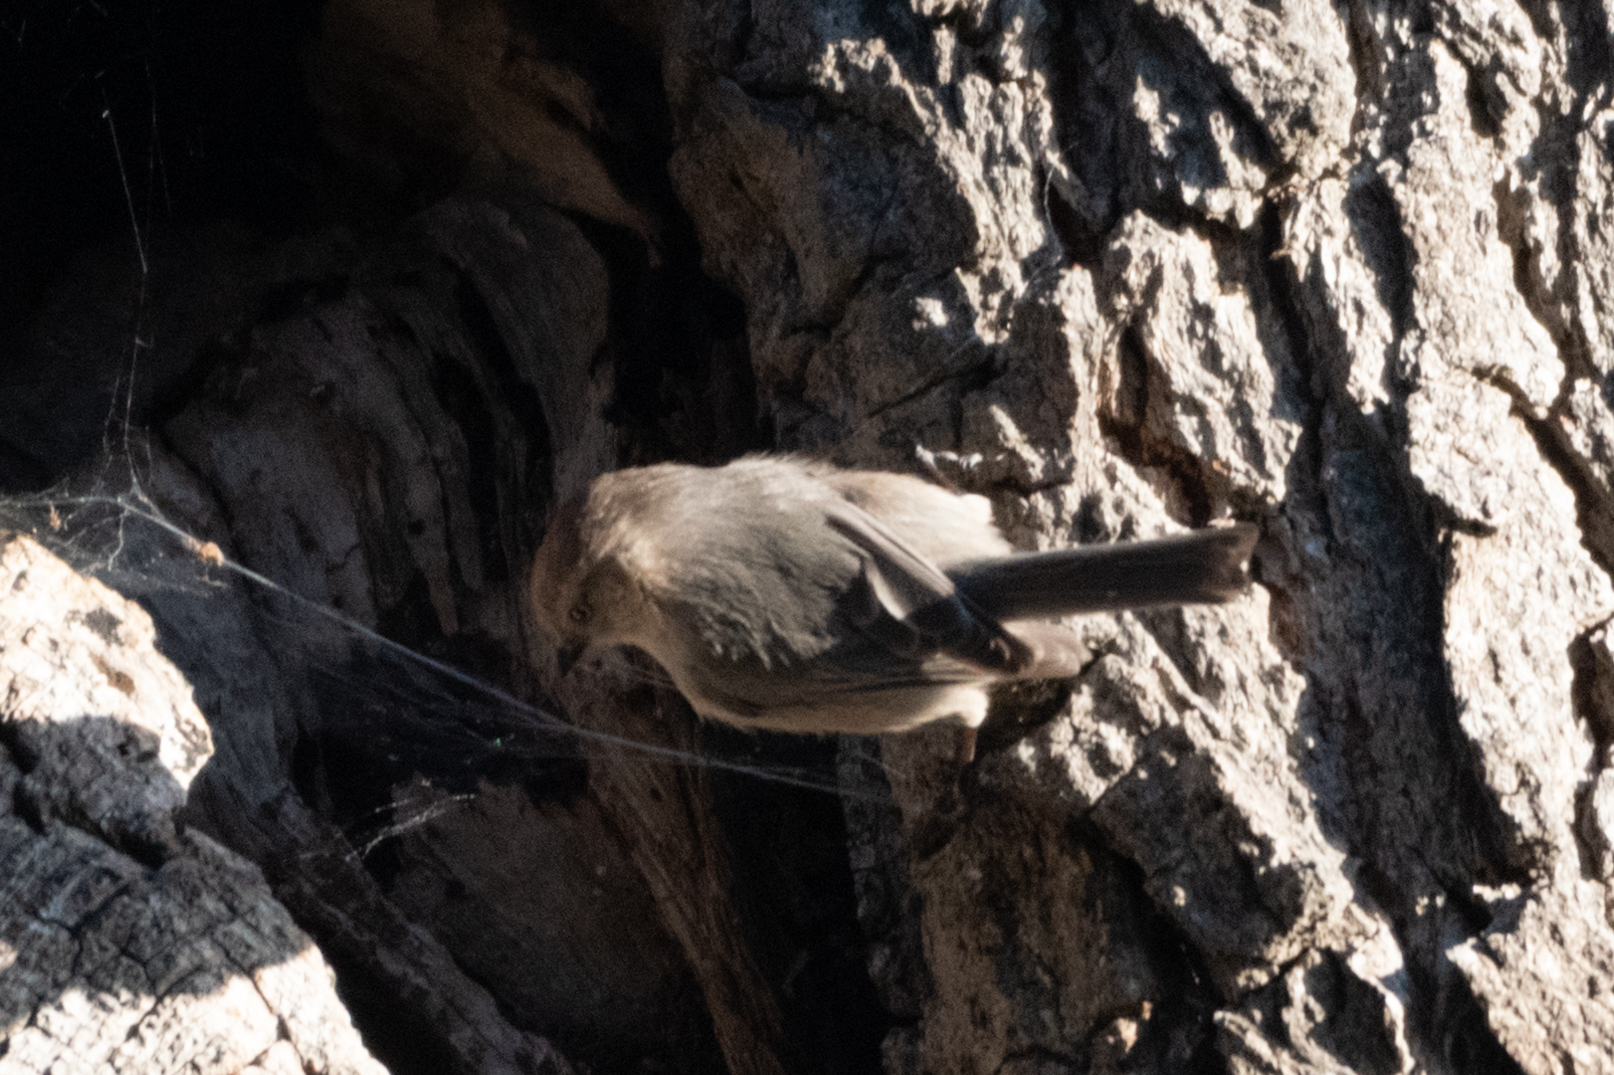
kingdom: Animalia
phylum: Chordata
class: Aves
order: Passeriformes
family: Aegithalidae
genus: Psaltriparus
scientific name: Psaltriparus minimus
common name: American bushtit
